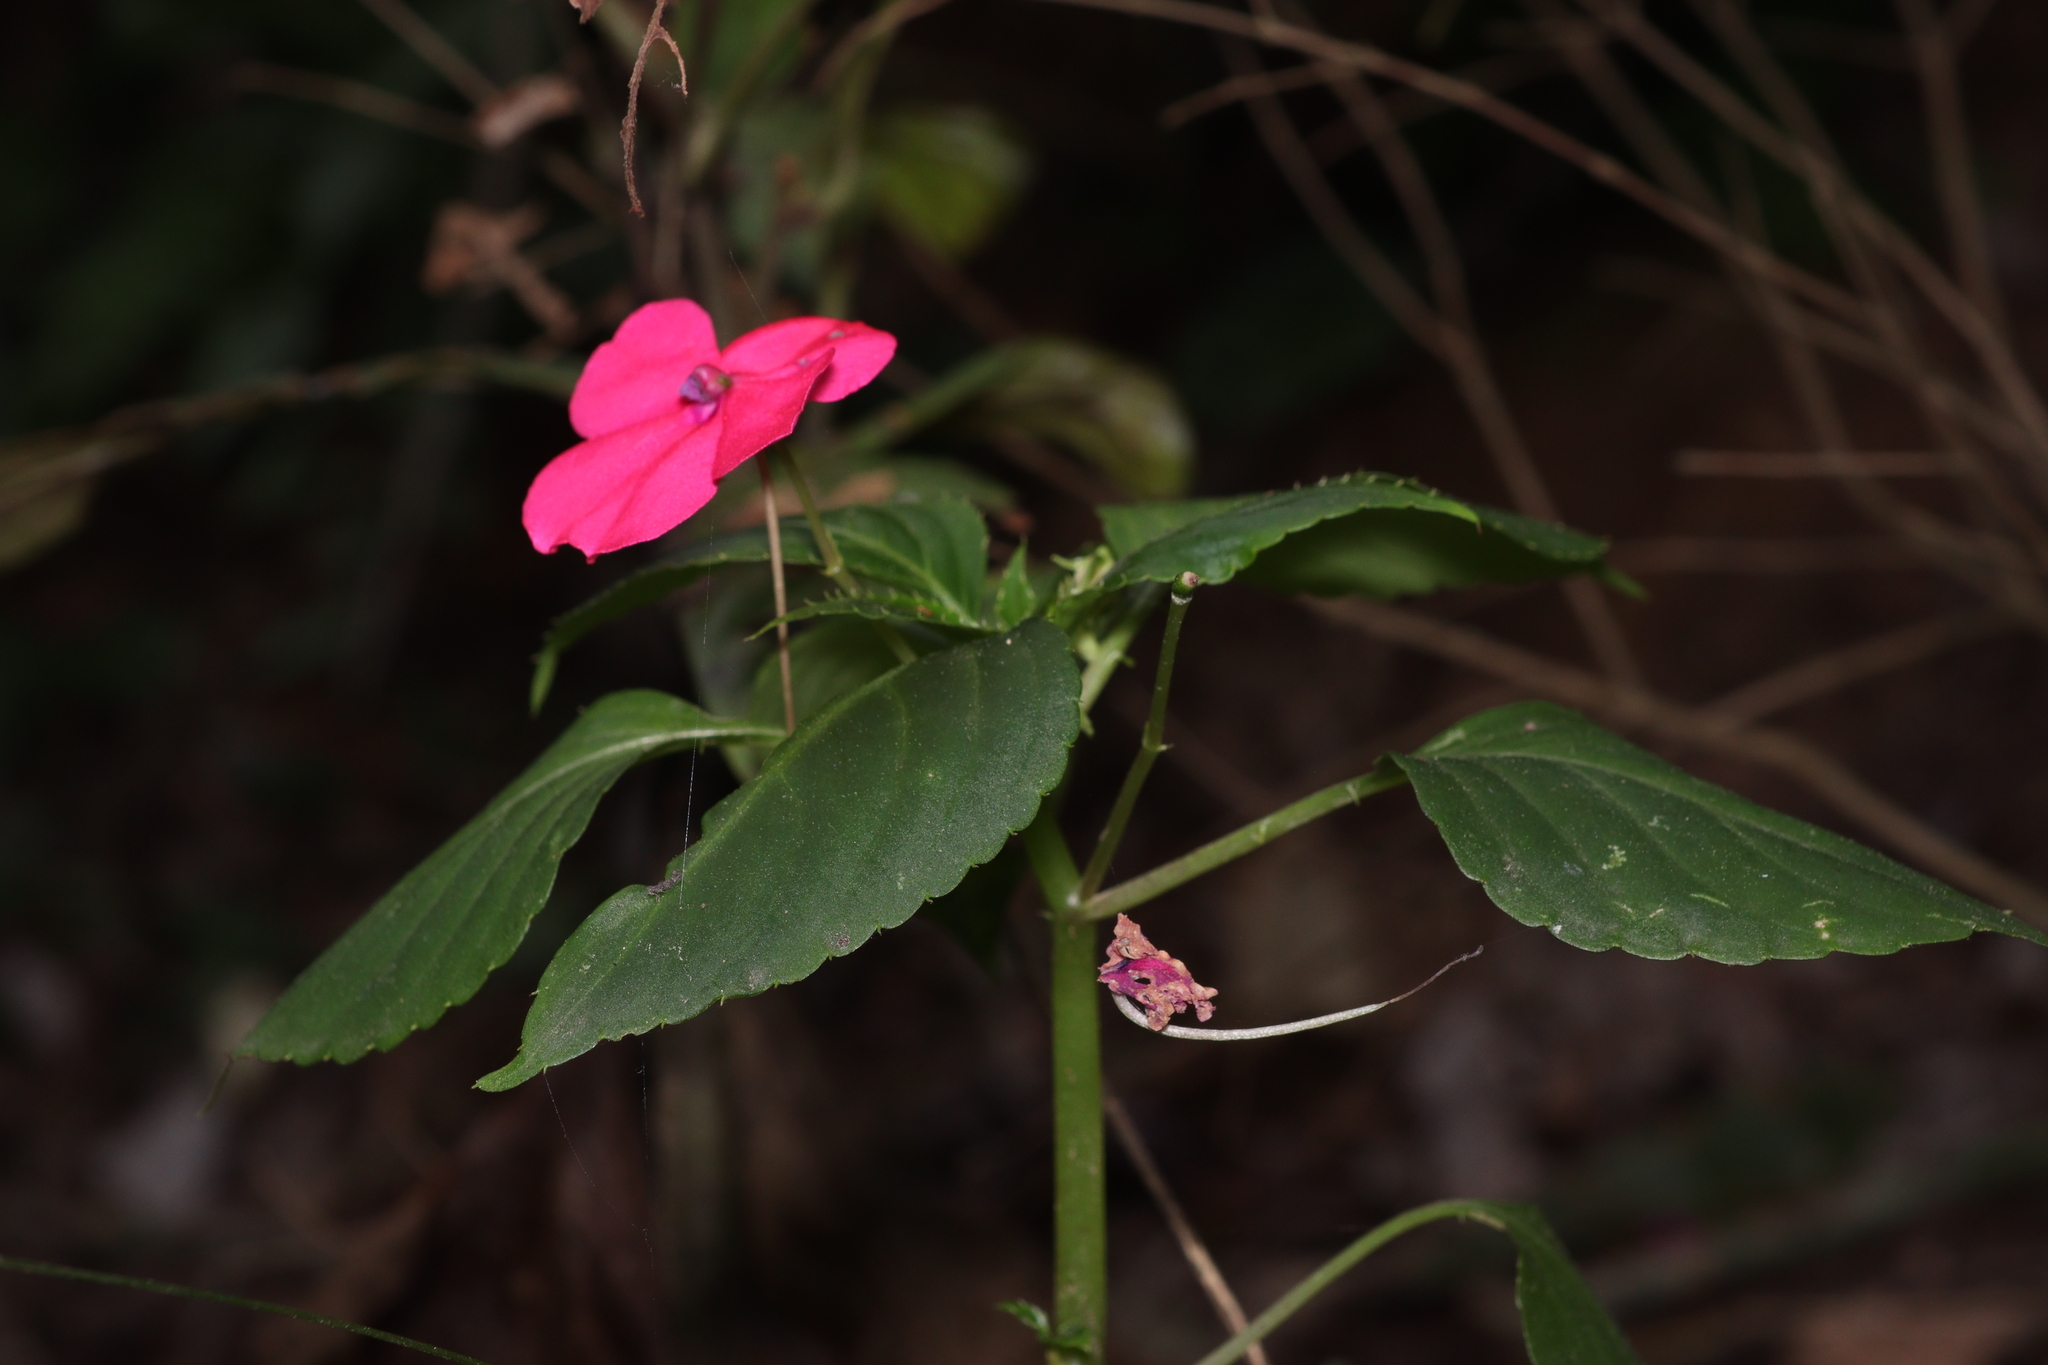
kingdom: Plantae
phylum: Tracheophyta
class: Magnoliopsida
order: Ericales
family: Balsaminaceae
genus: Impatiens
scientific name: Impatiens walleriana
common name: Buzzy lizzy
